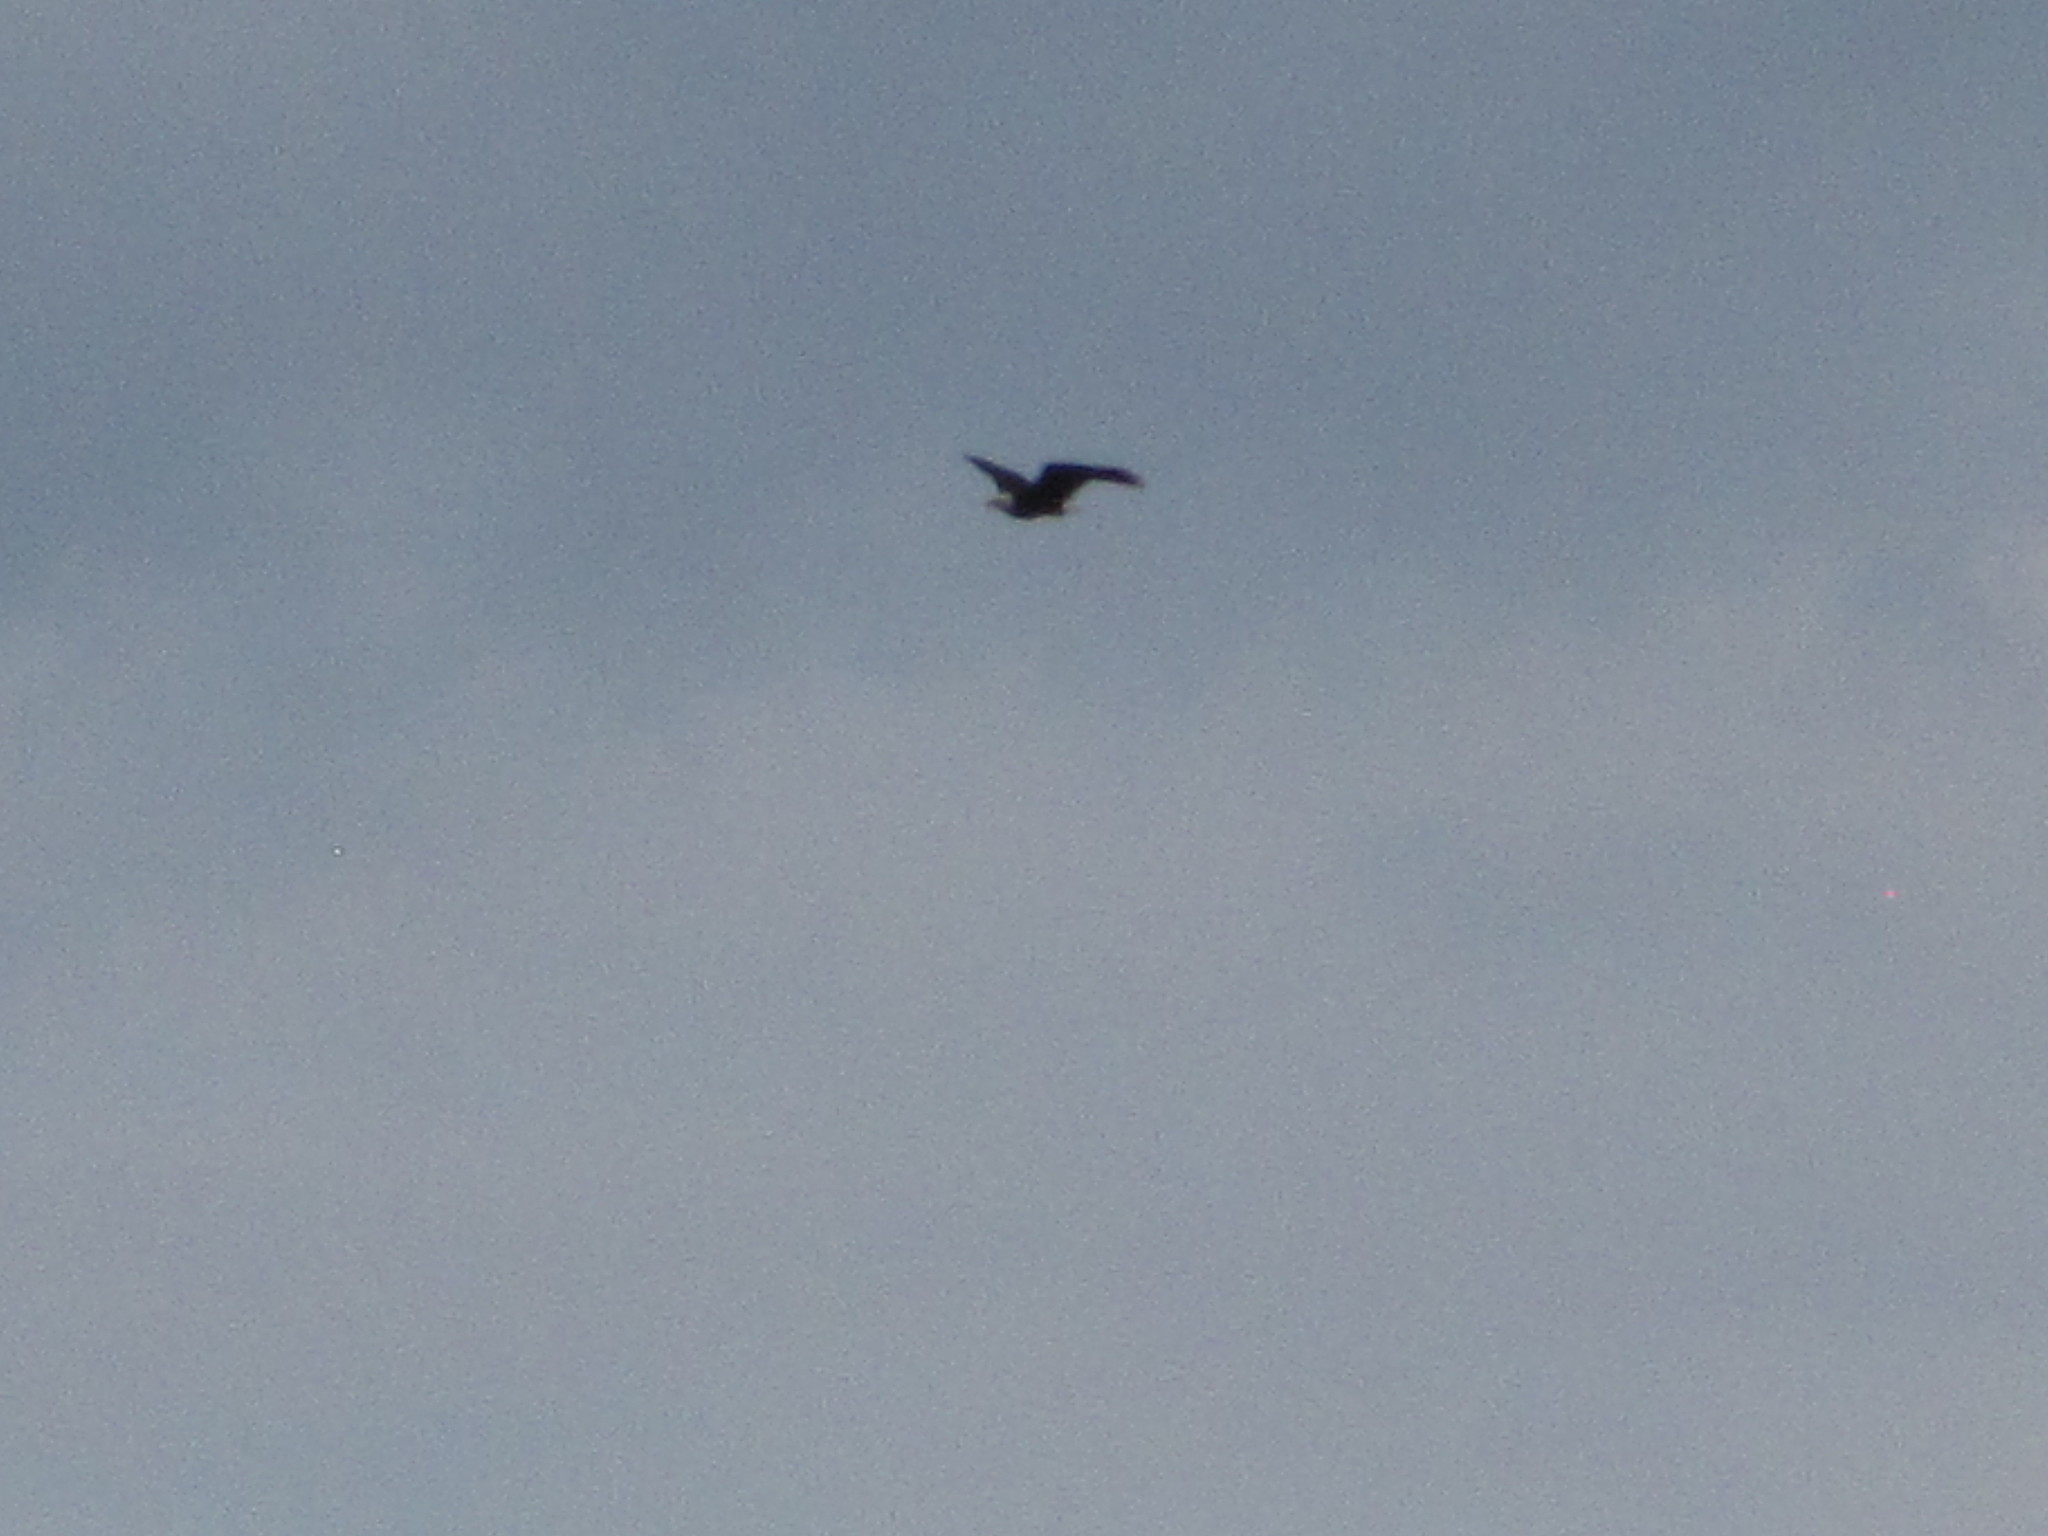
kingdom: Animalia
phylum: Chordata
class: Aves
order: Accipitriformes
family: Accipitridae
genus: Haliaeetus
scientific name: Haliaeetus leucocephalus
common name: Bald eagle
